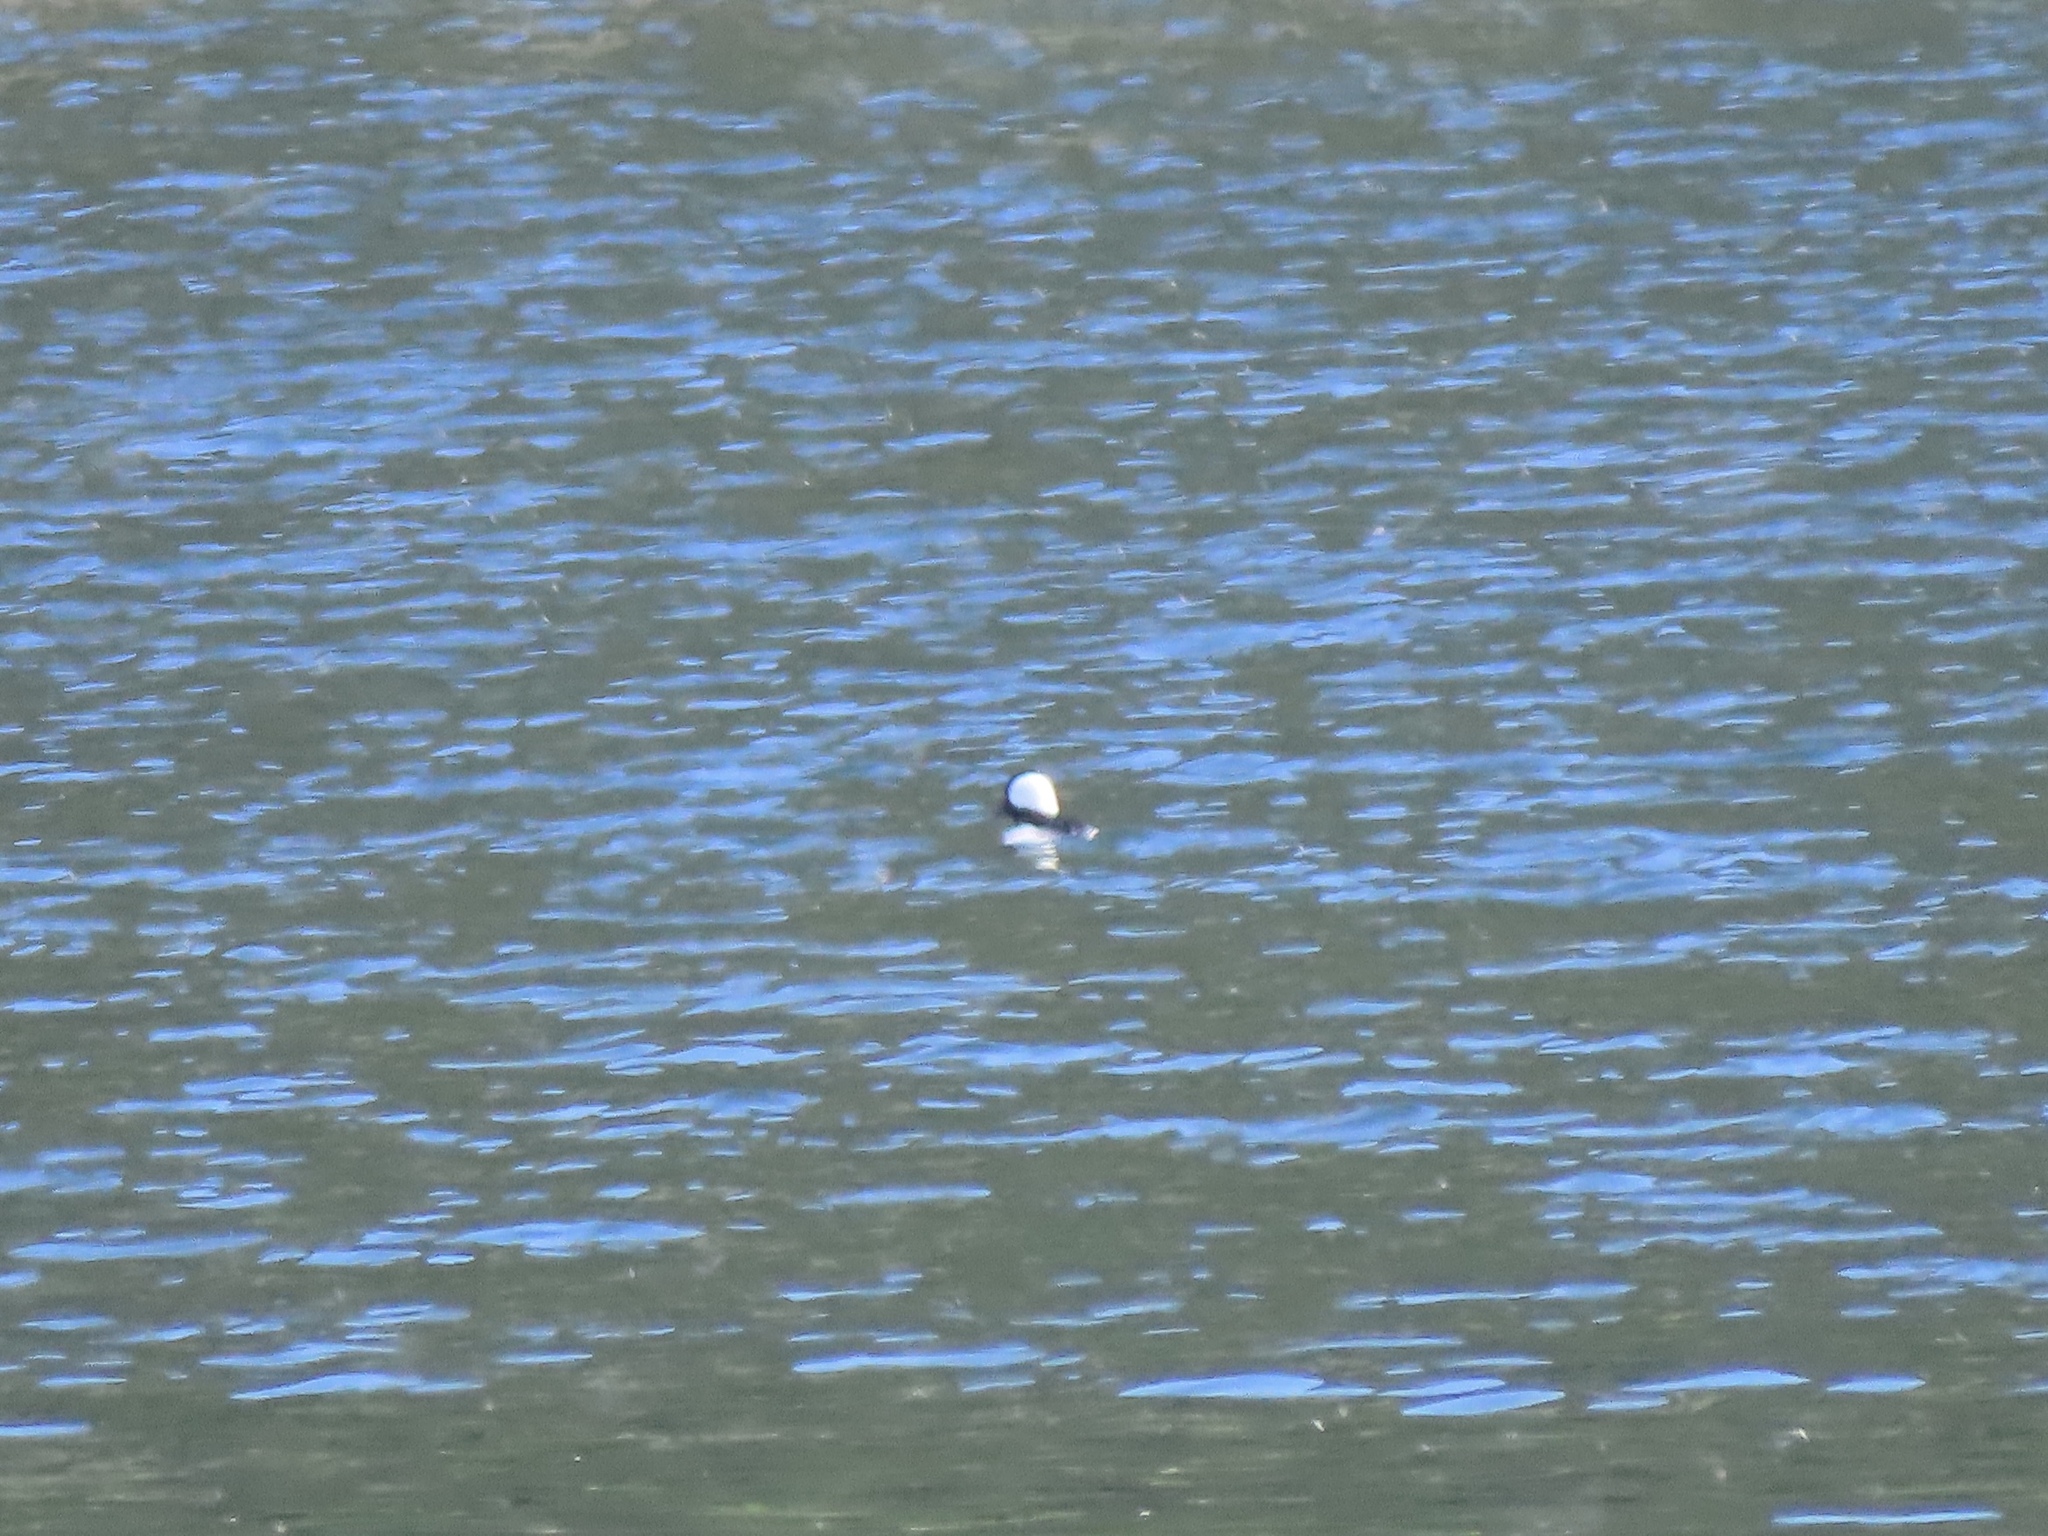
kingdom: Animalia
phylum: Chordata
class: Aves
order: Anseriformes
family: Anatidae
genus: Bucephala
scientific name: Bucephala albeola
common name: Bufflehead
